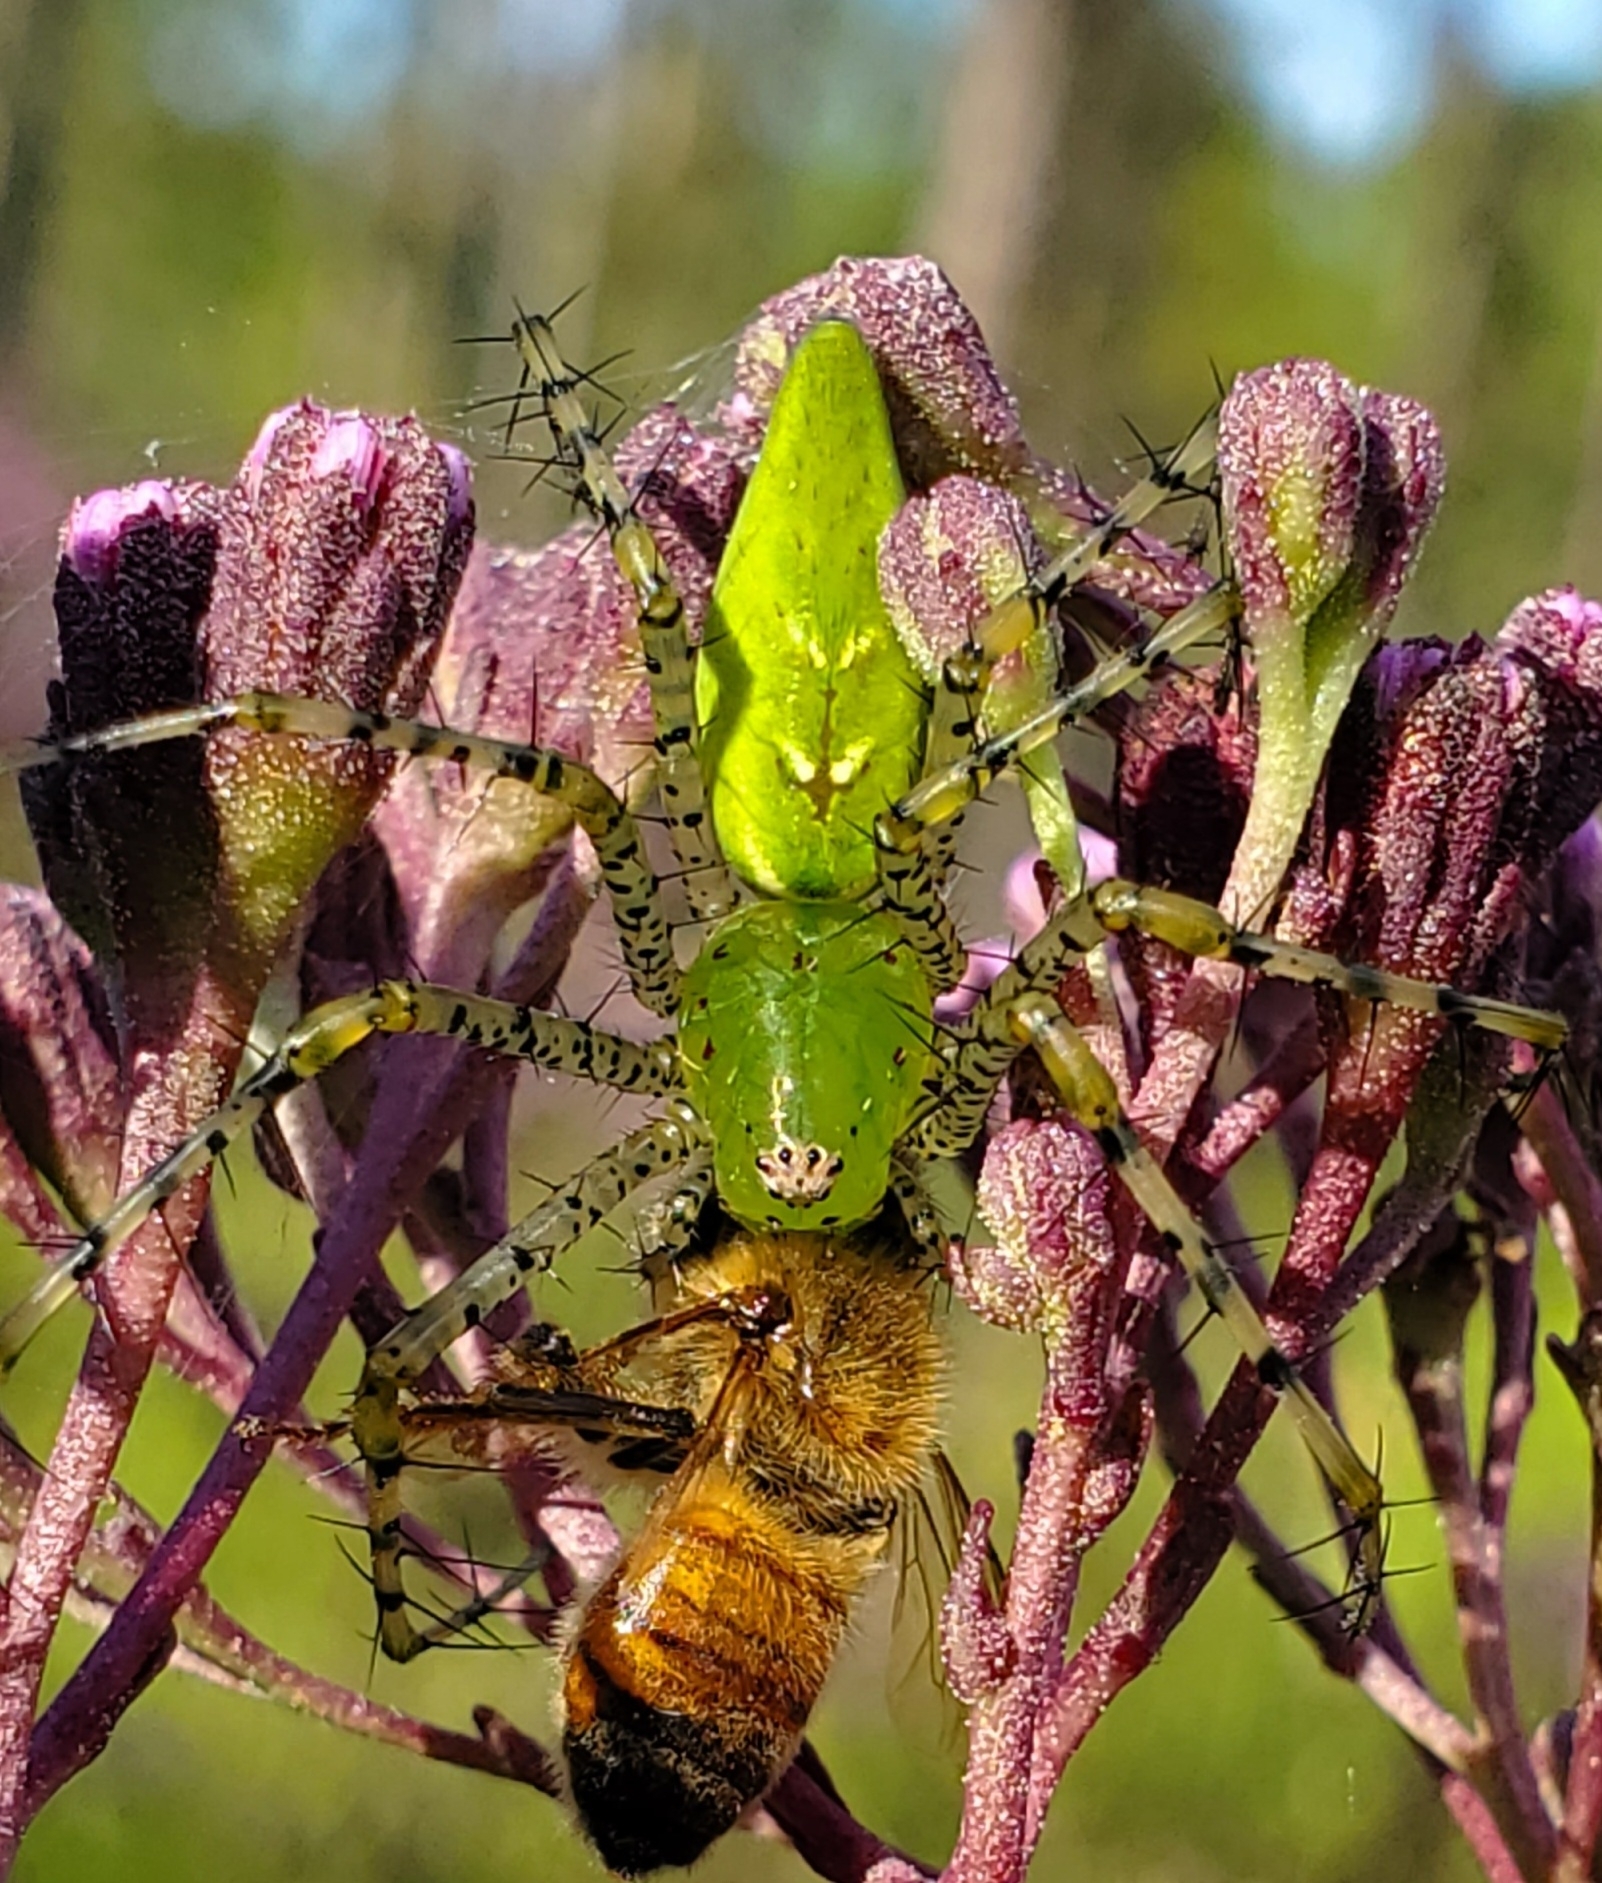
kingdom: Animalia
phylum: Arthropoda
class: Arachnida
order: Araneae
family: Oxyopidae
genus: Peucetia
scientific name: Peucetia viridans
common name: Lynx spiders
